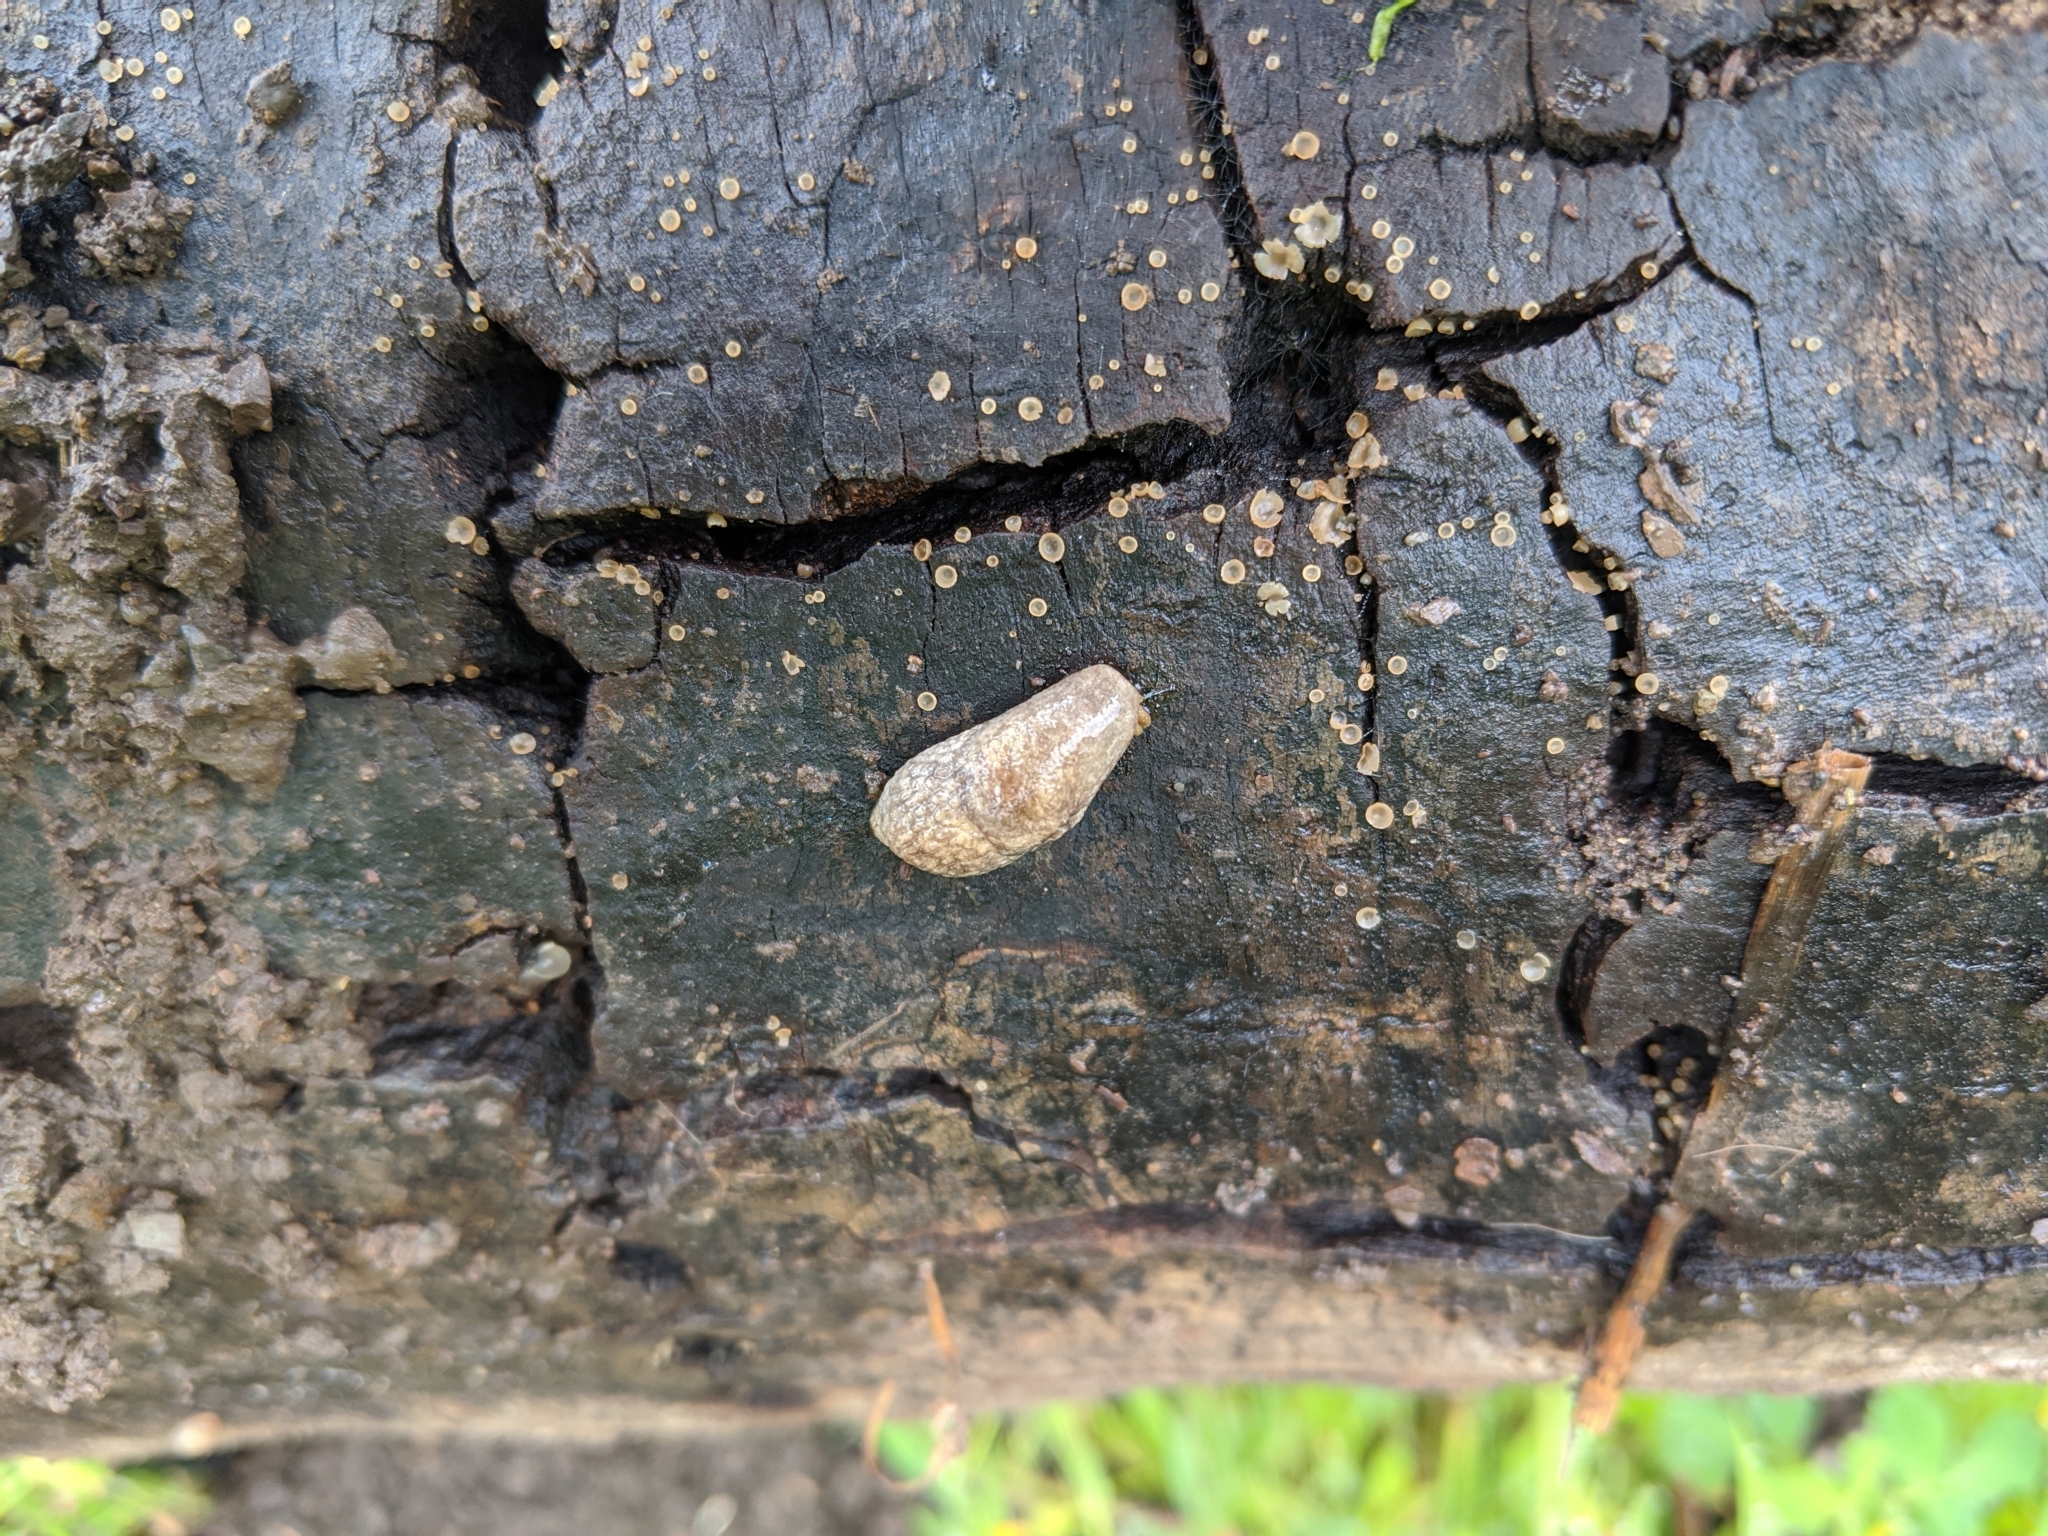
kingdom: Animalia
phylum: Mollusca
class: Gastropoda
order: Stylommatophora
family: Agriolimacidae
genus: Deroceras
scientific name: Deroceras reticulatum
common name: Gray field slug
